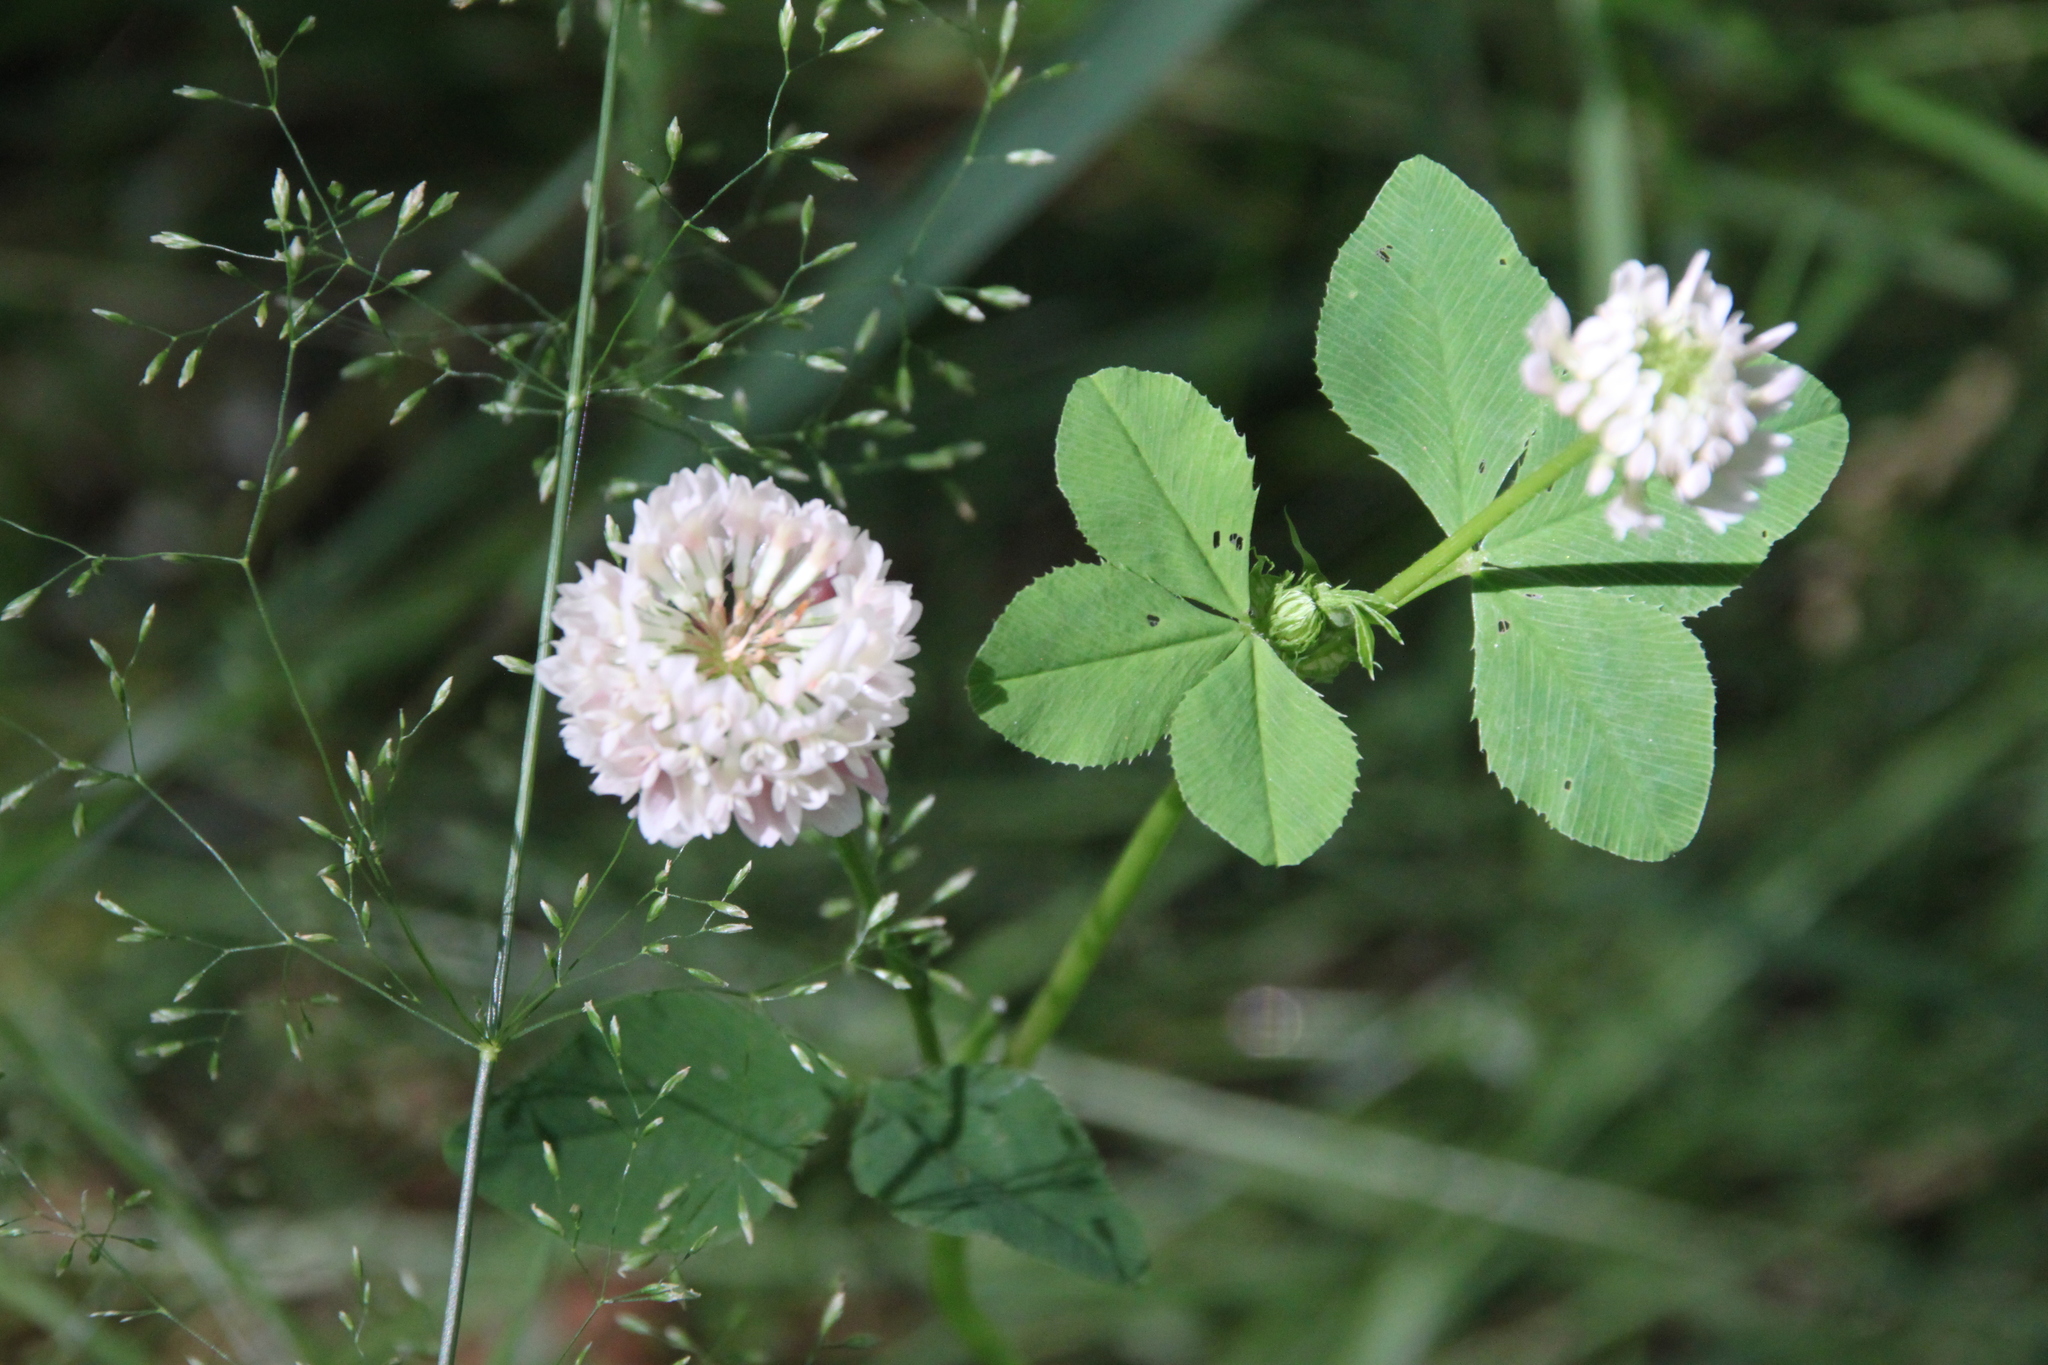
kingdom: Plantae
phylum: Tracheophyta
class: Magnoliopsida
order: Fabales
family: Fabaceae
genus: Trifolium
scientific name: Trifolium hybridum
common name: Alsike clover
